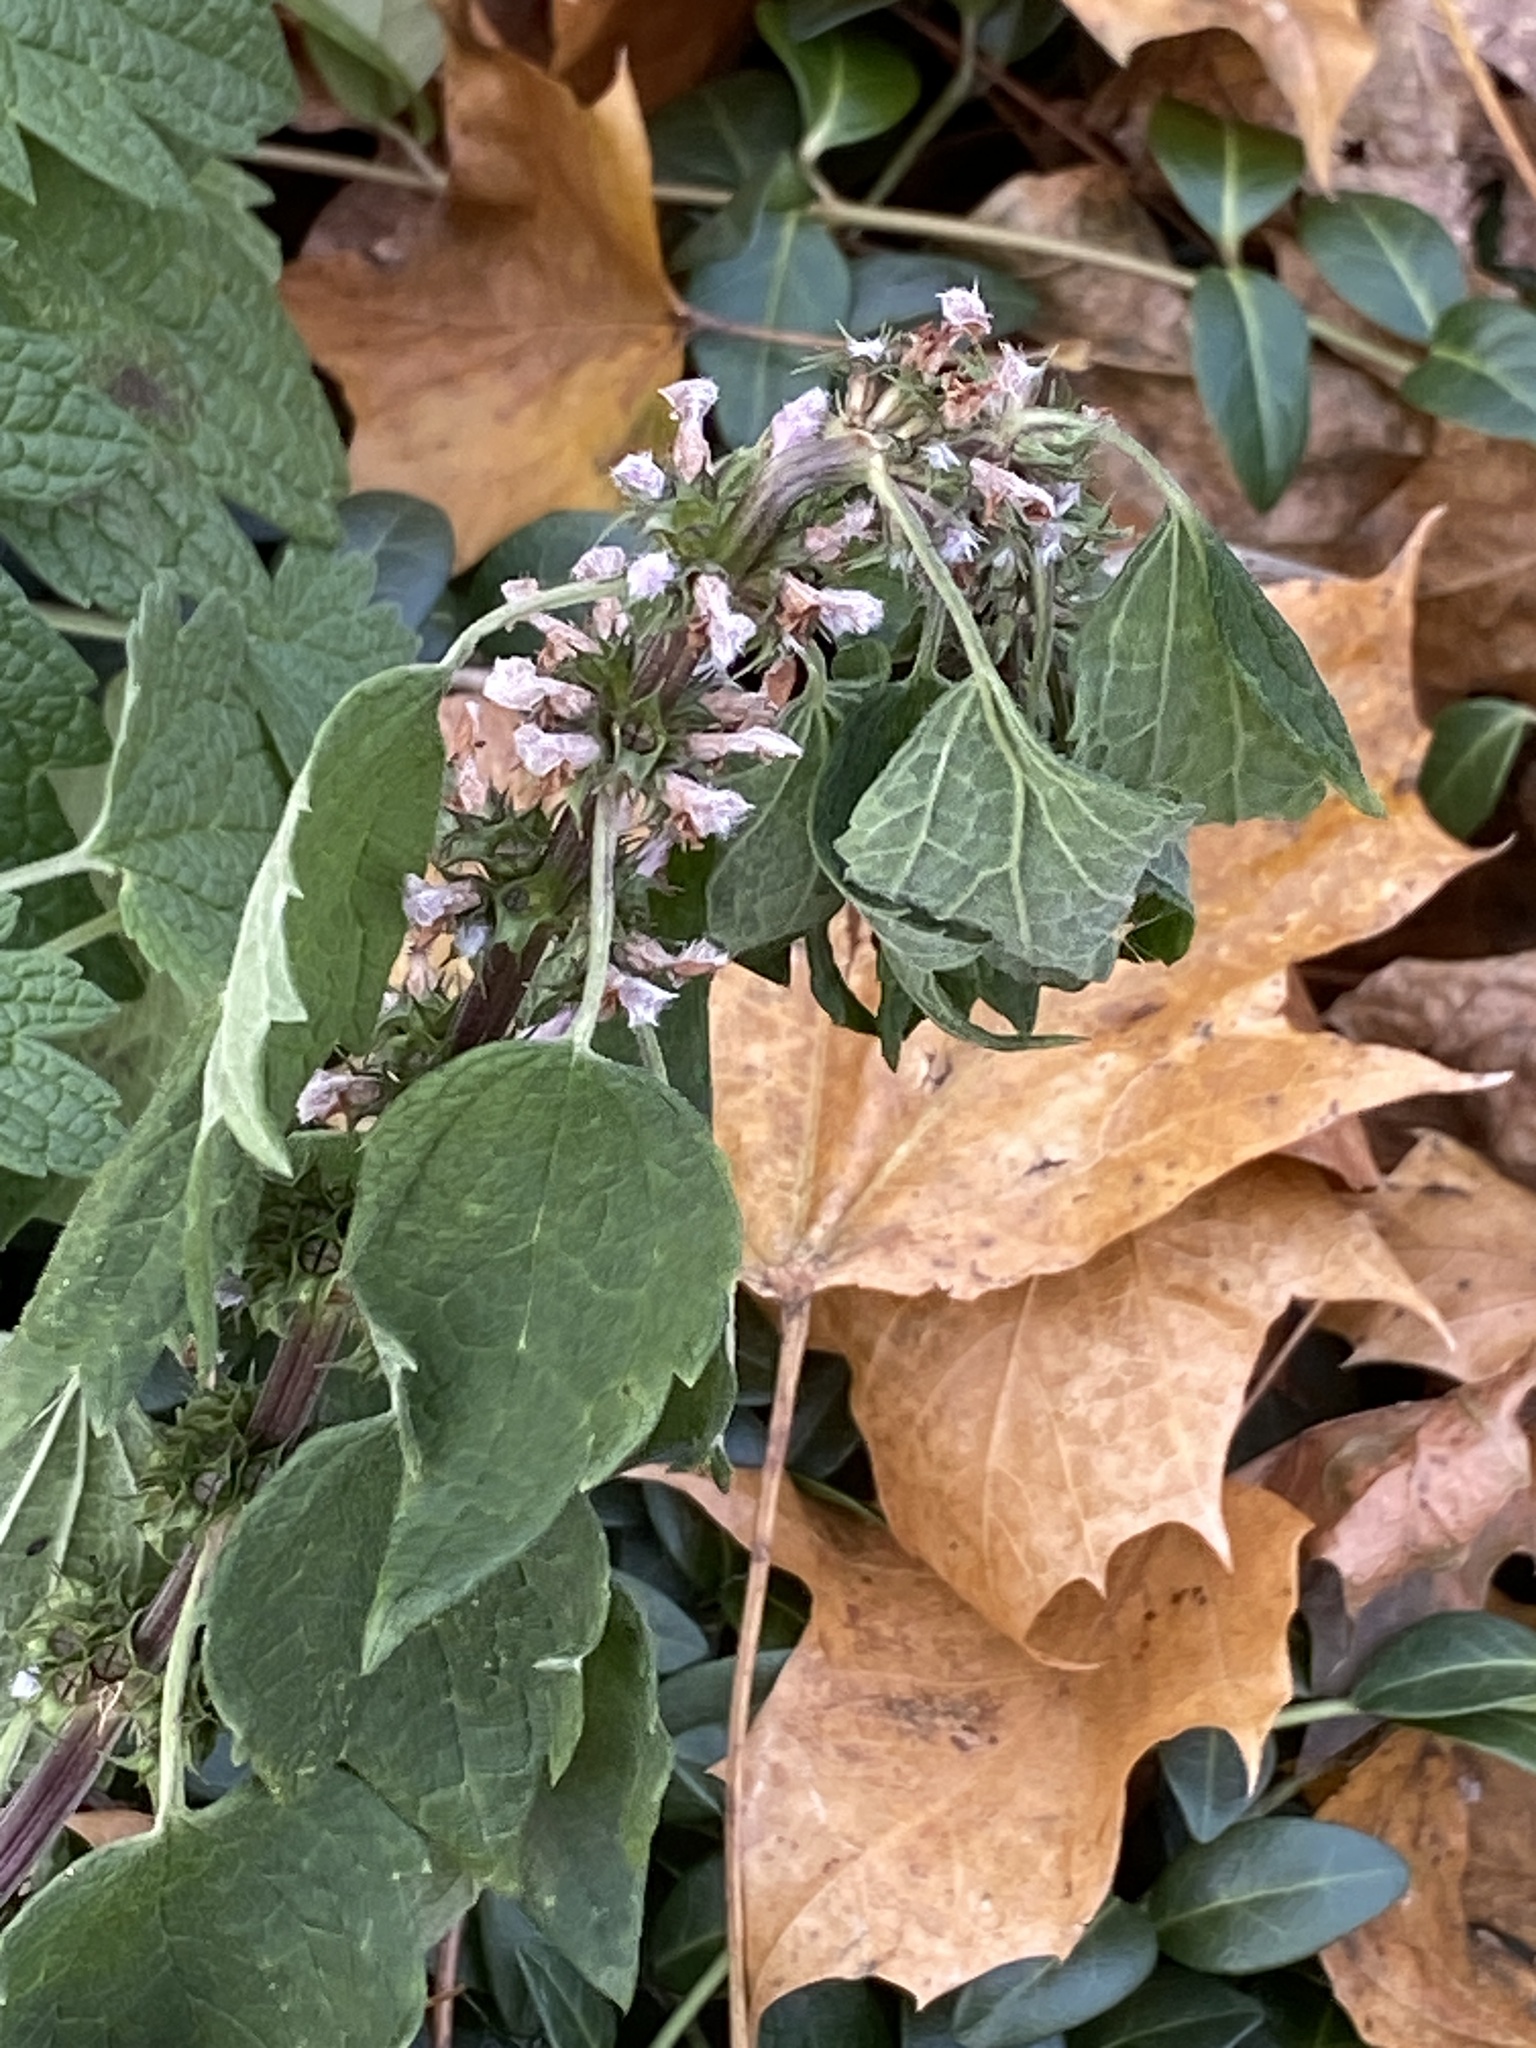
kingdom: Plantae
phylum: Tracheophyta
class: Magnoliopsida
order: Lamiales
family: Lamiaceae
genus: Leonurus
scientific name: Leonurus cardiaca
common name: Motherwort
